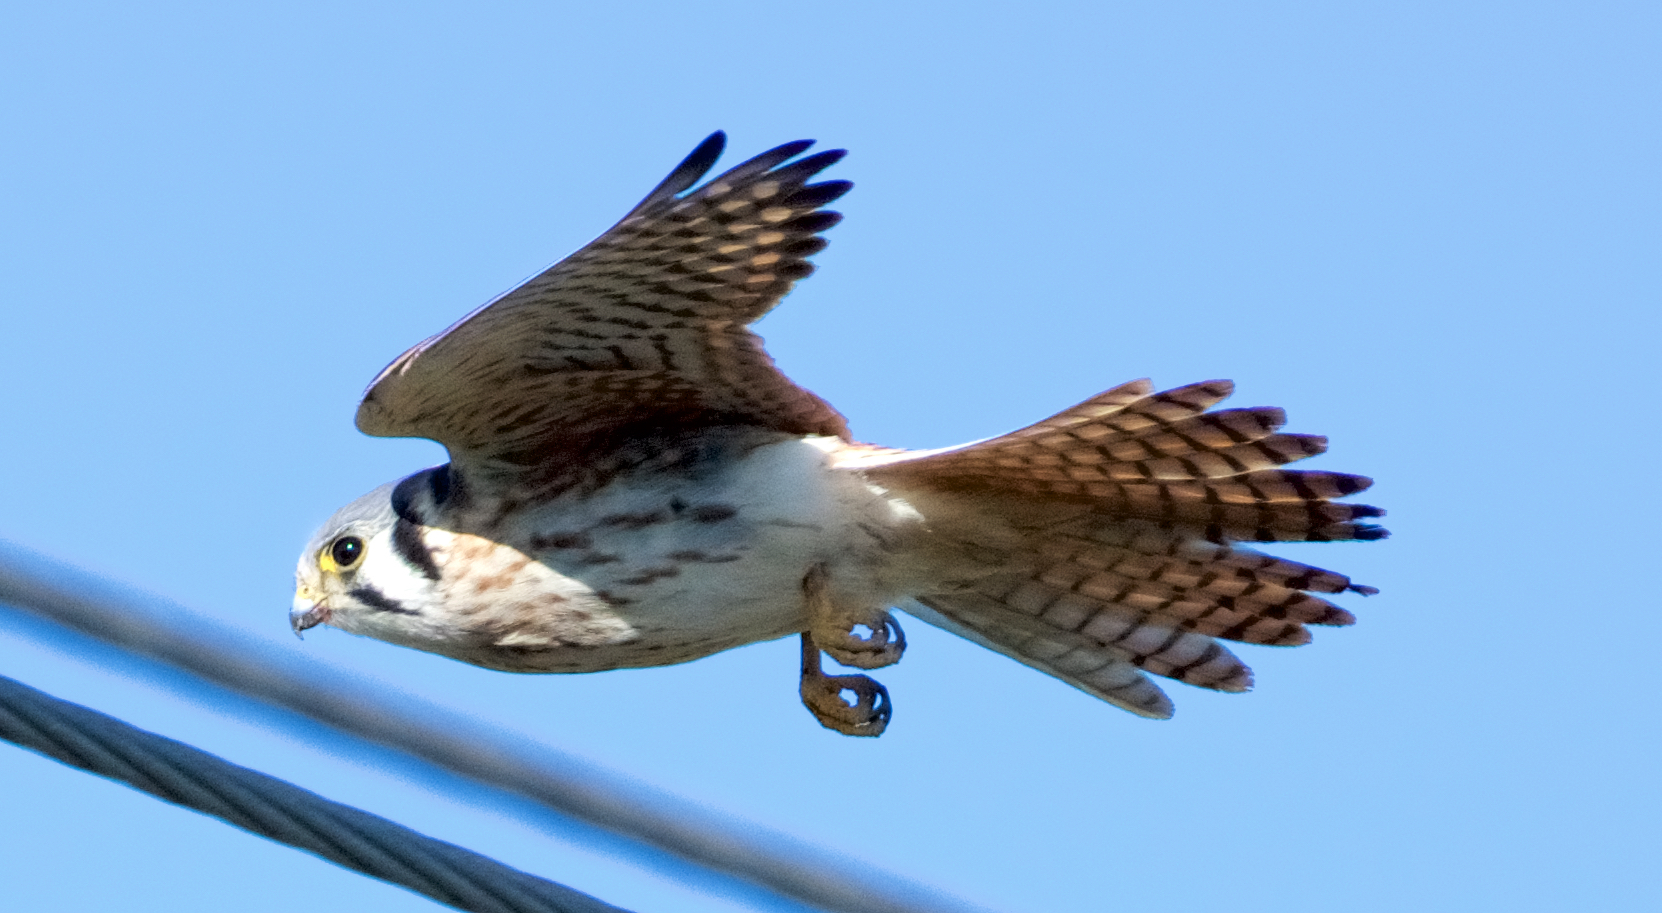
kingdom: Animalia
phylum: Chordata
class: Aves
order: Falconiformes
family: Falconidae
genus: Falco
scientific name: Falco sparverius
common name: American kestrel
